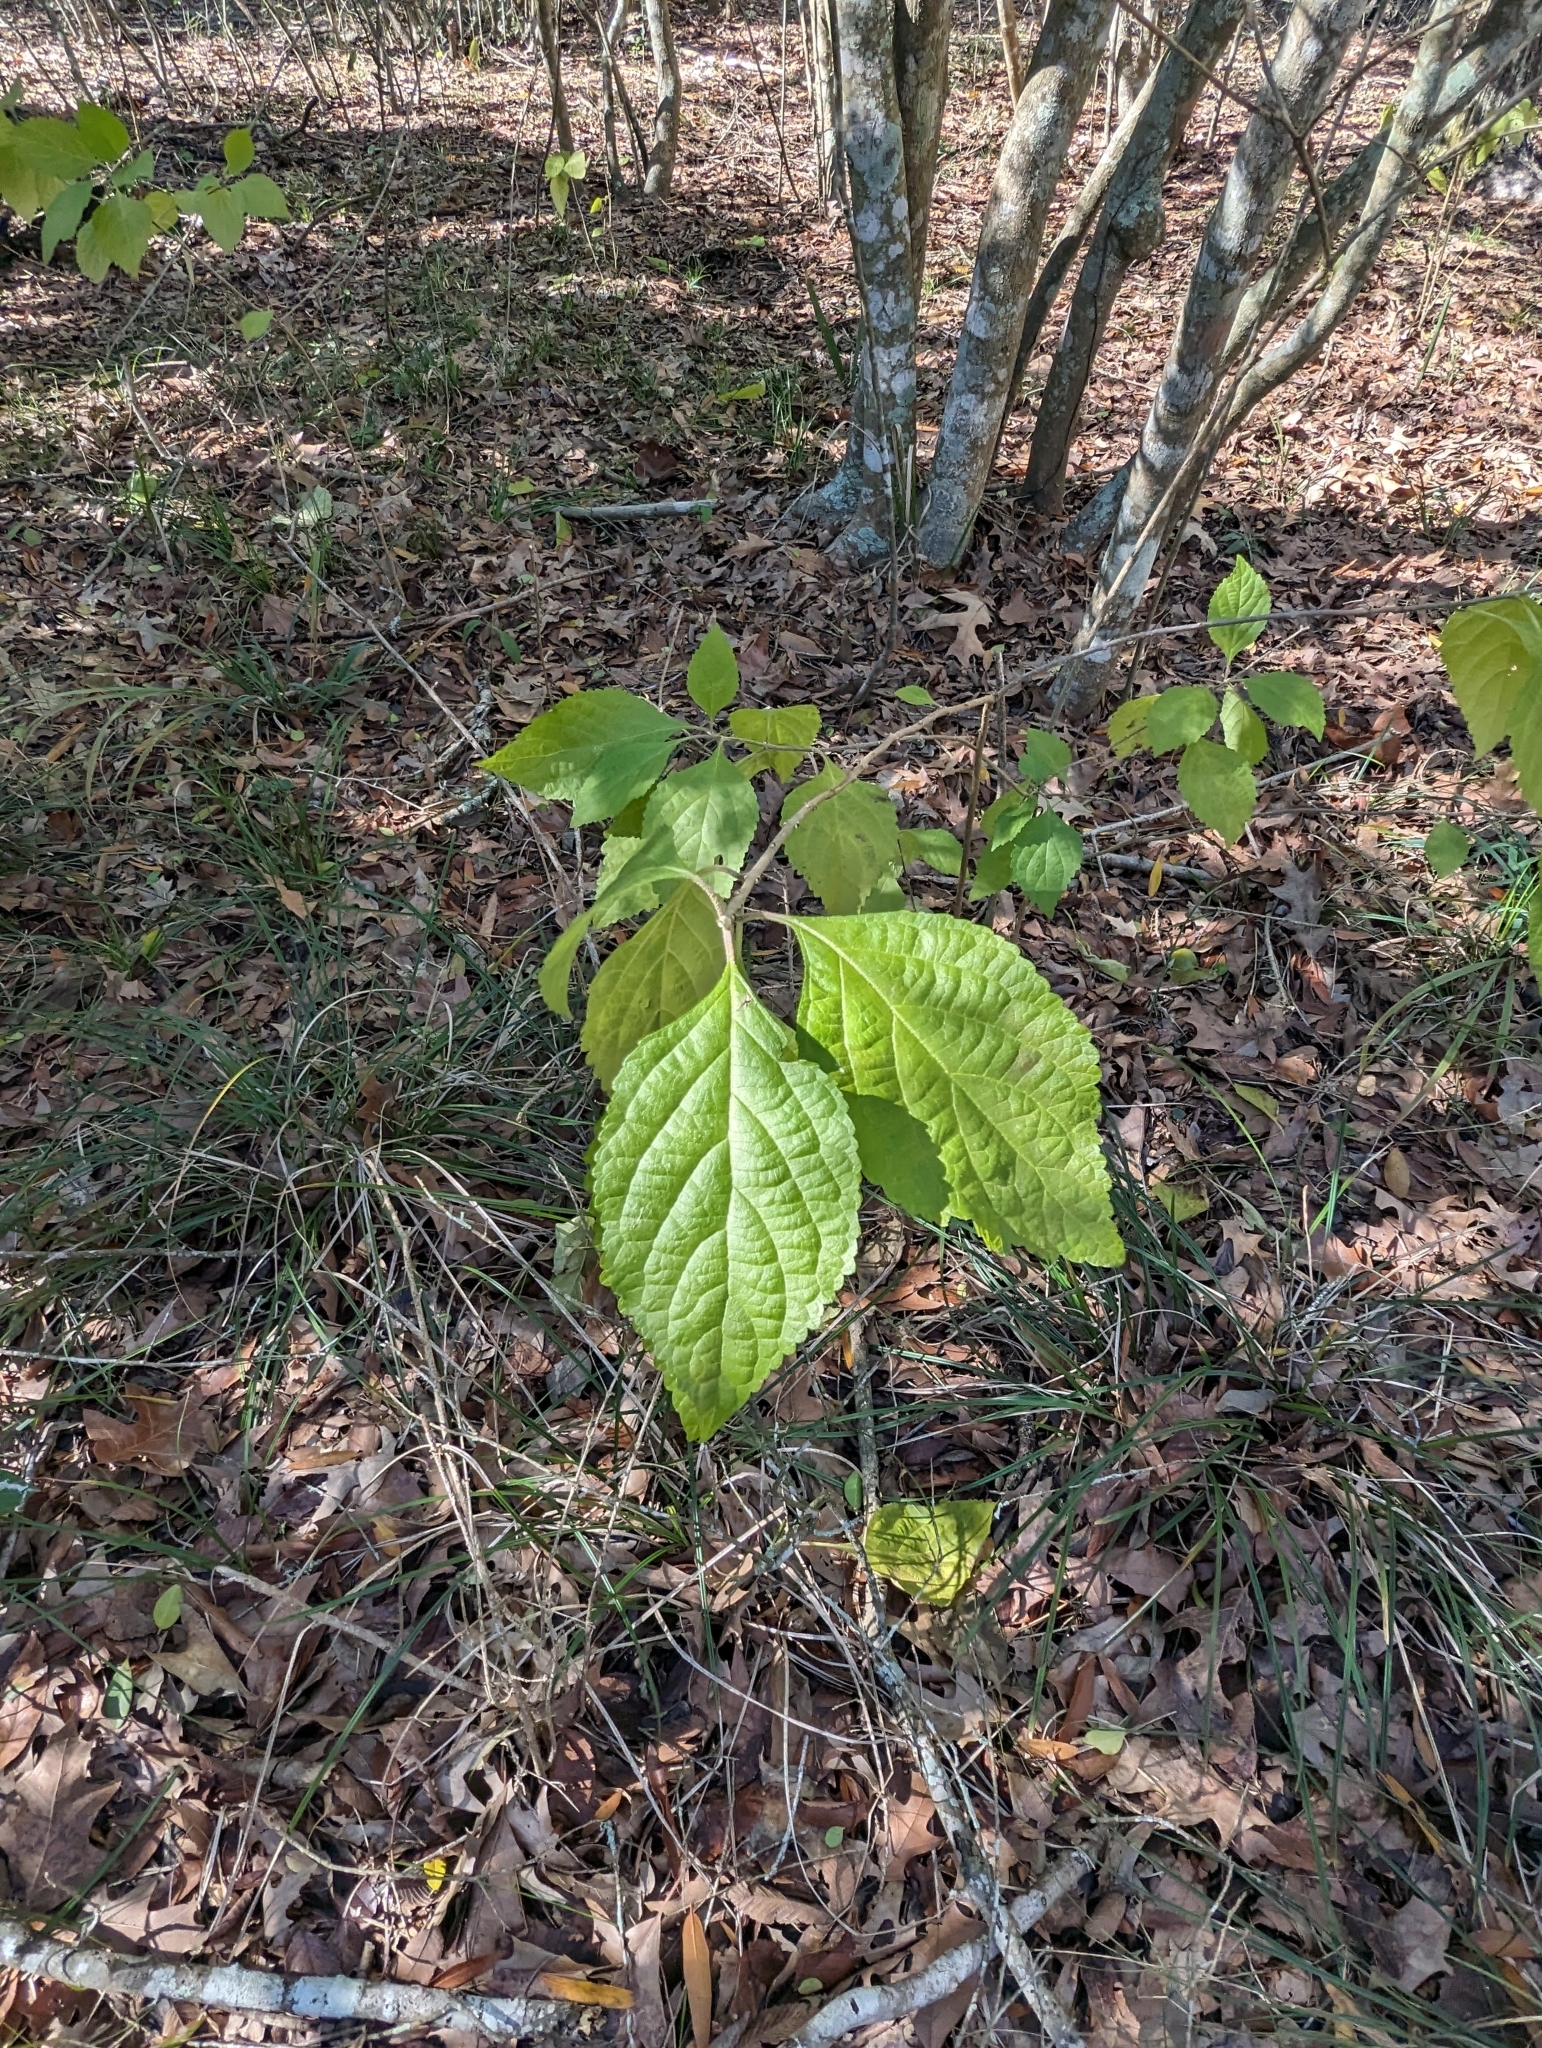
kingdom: Plantae
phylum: Tracheophyta
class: Magnoliopsida
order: Lamiales
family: Lamiaceae
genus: Callicarpa
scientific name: Callicarpa americana
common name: American beautyberry
